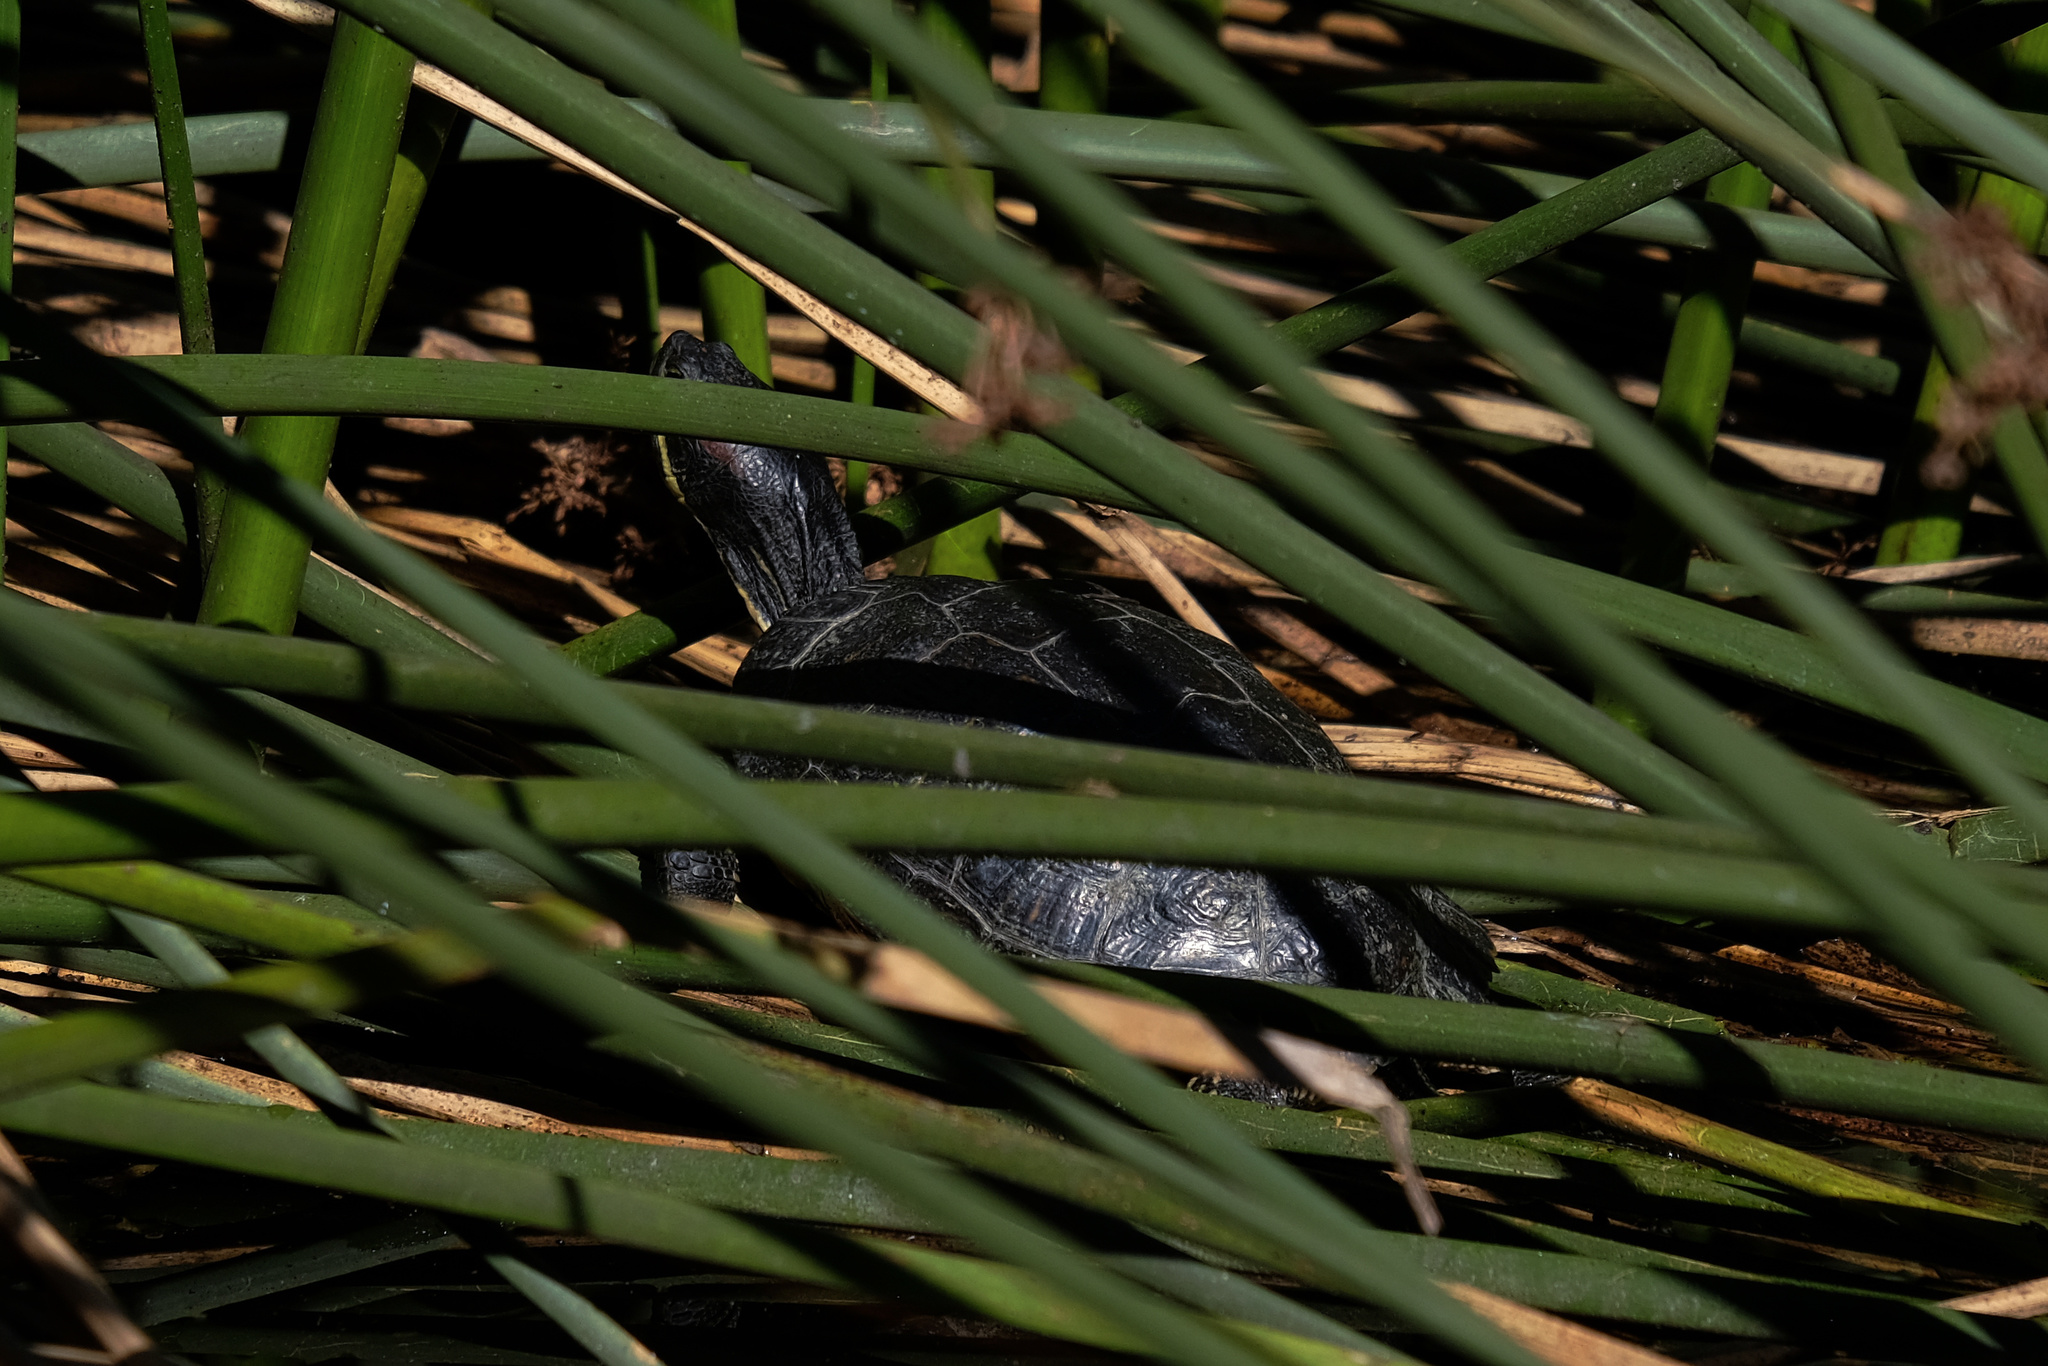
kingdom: Animalia
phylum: Chordata
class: Testudines
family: Emydidae
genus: Trachemys
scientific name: Trachemys scripta
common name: Slider
